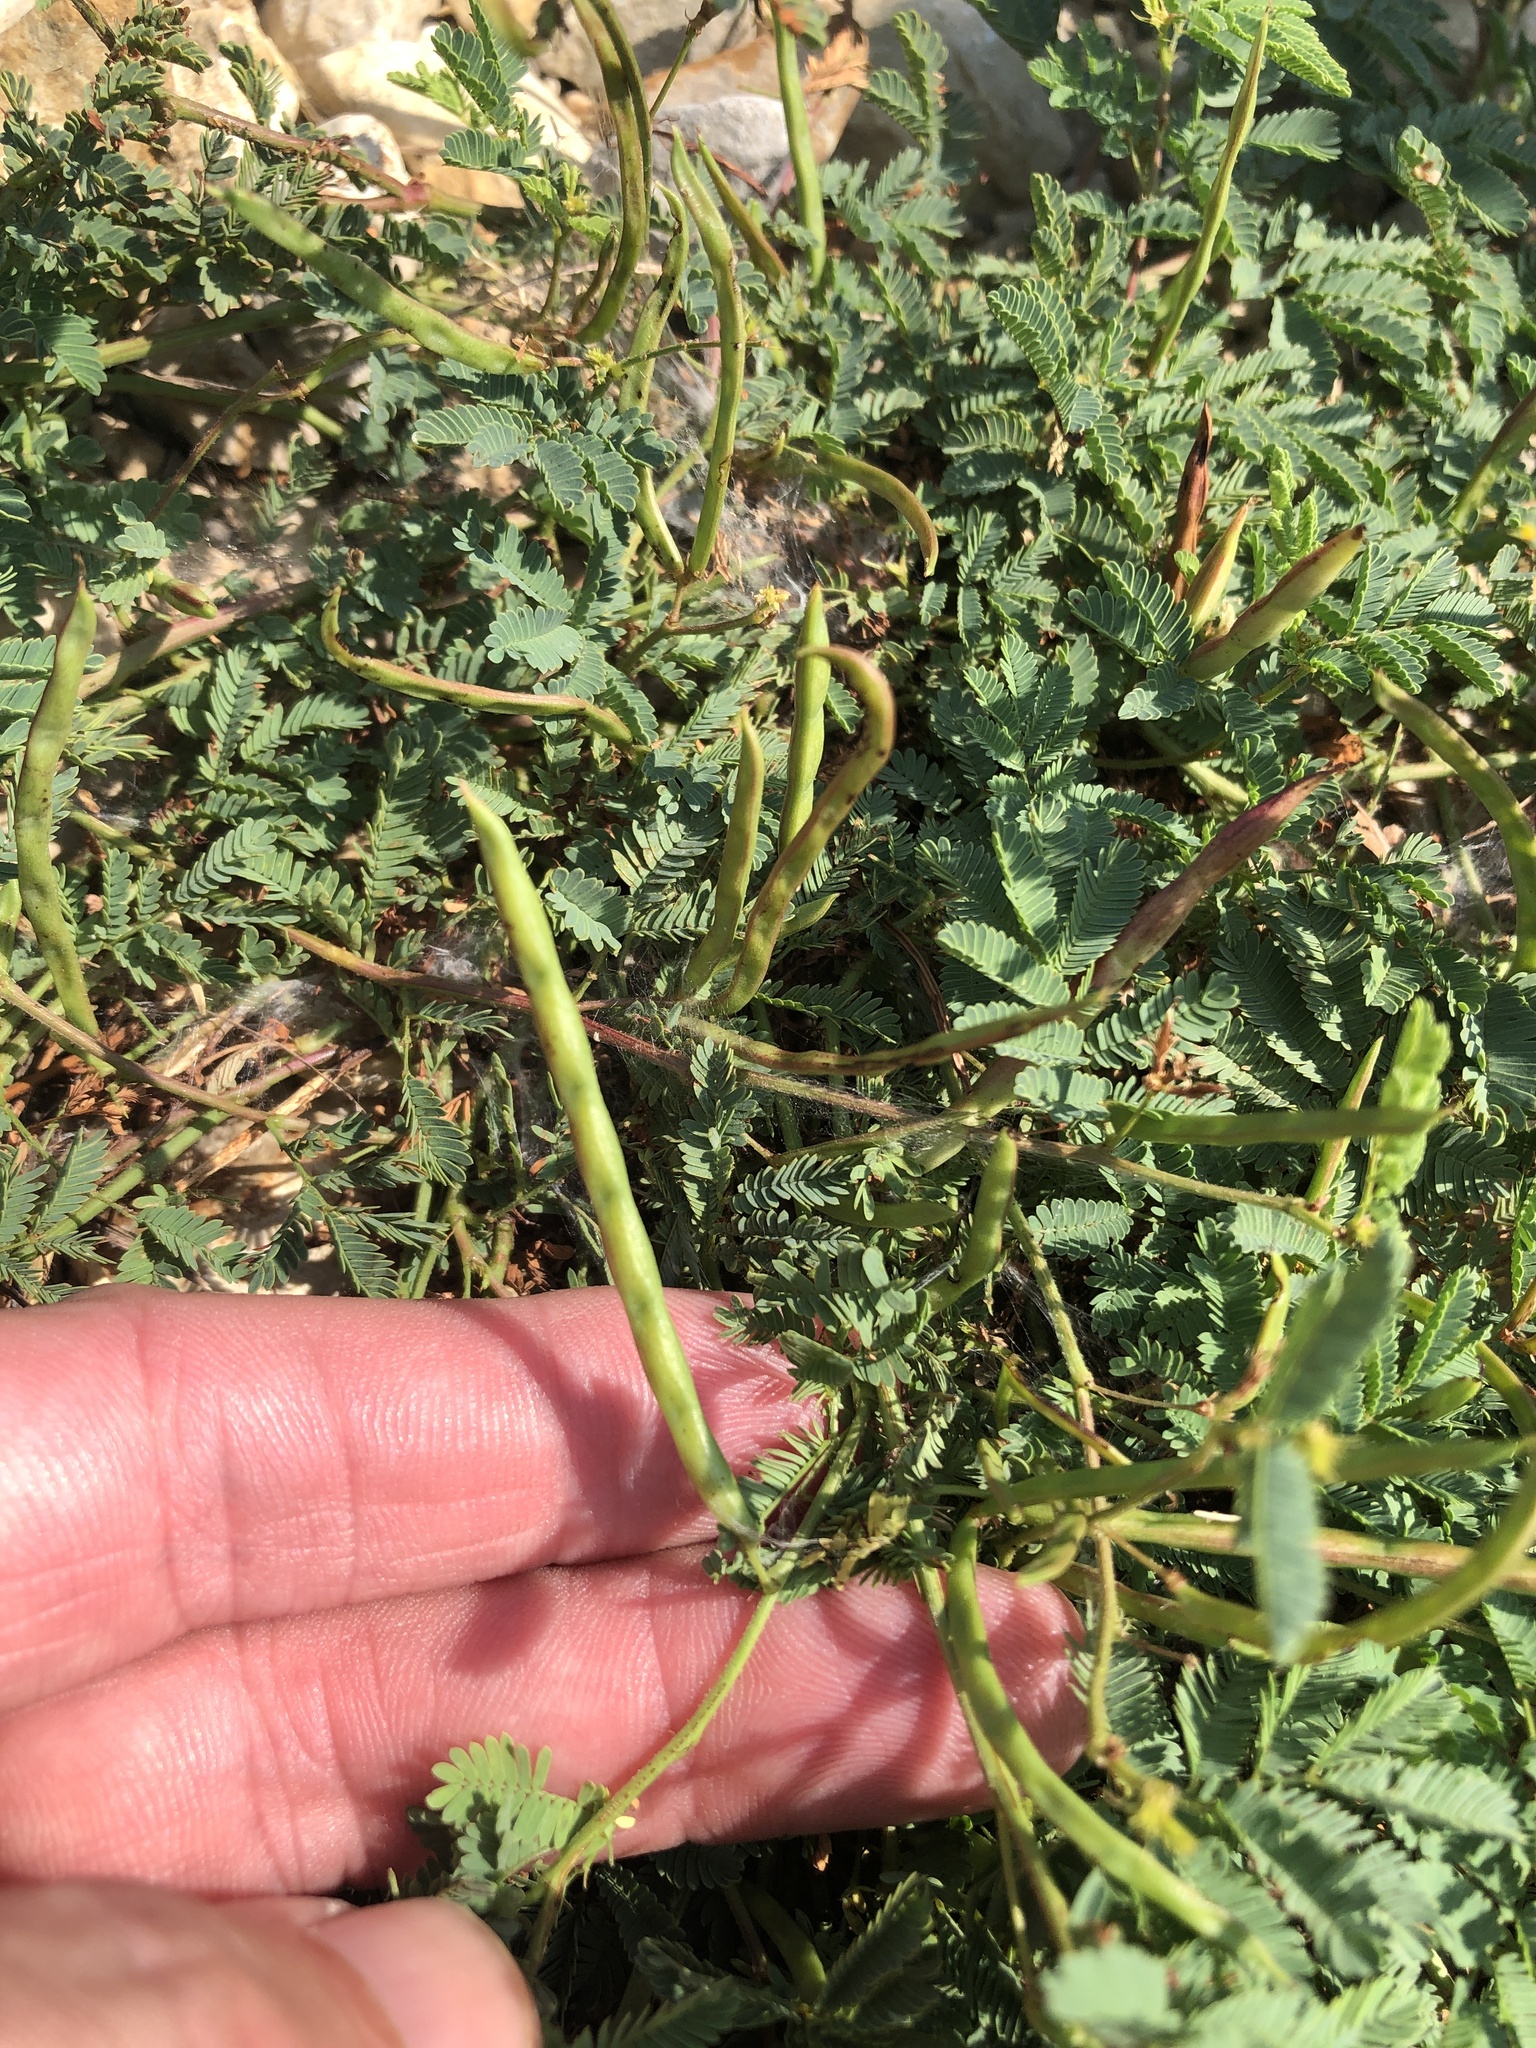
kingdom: Plantae
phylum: Tracheophyta
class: Magnoliopsida
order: Fabales
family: Fabaceae
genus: Desmanthus
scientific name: Desmanthus leptolobus
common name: Prairie-mimosa
